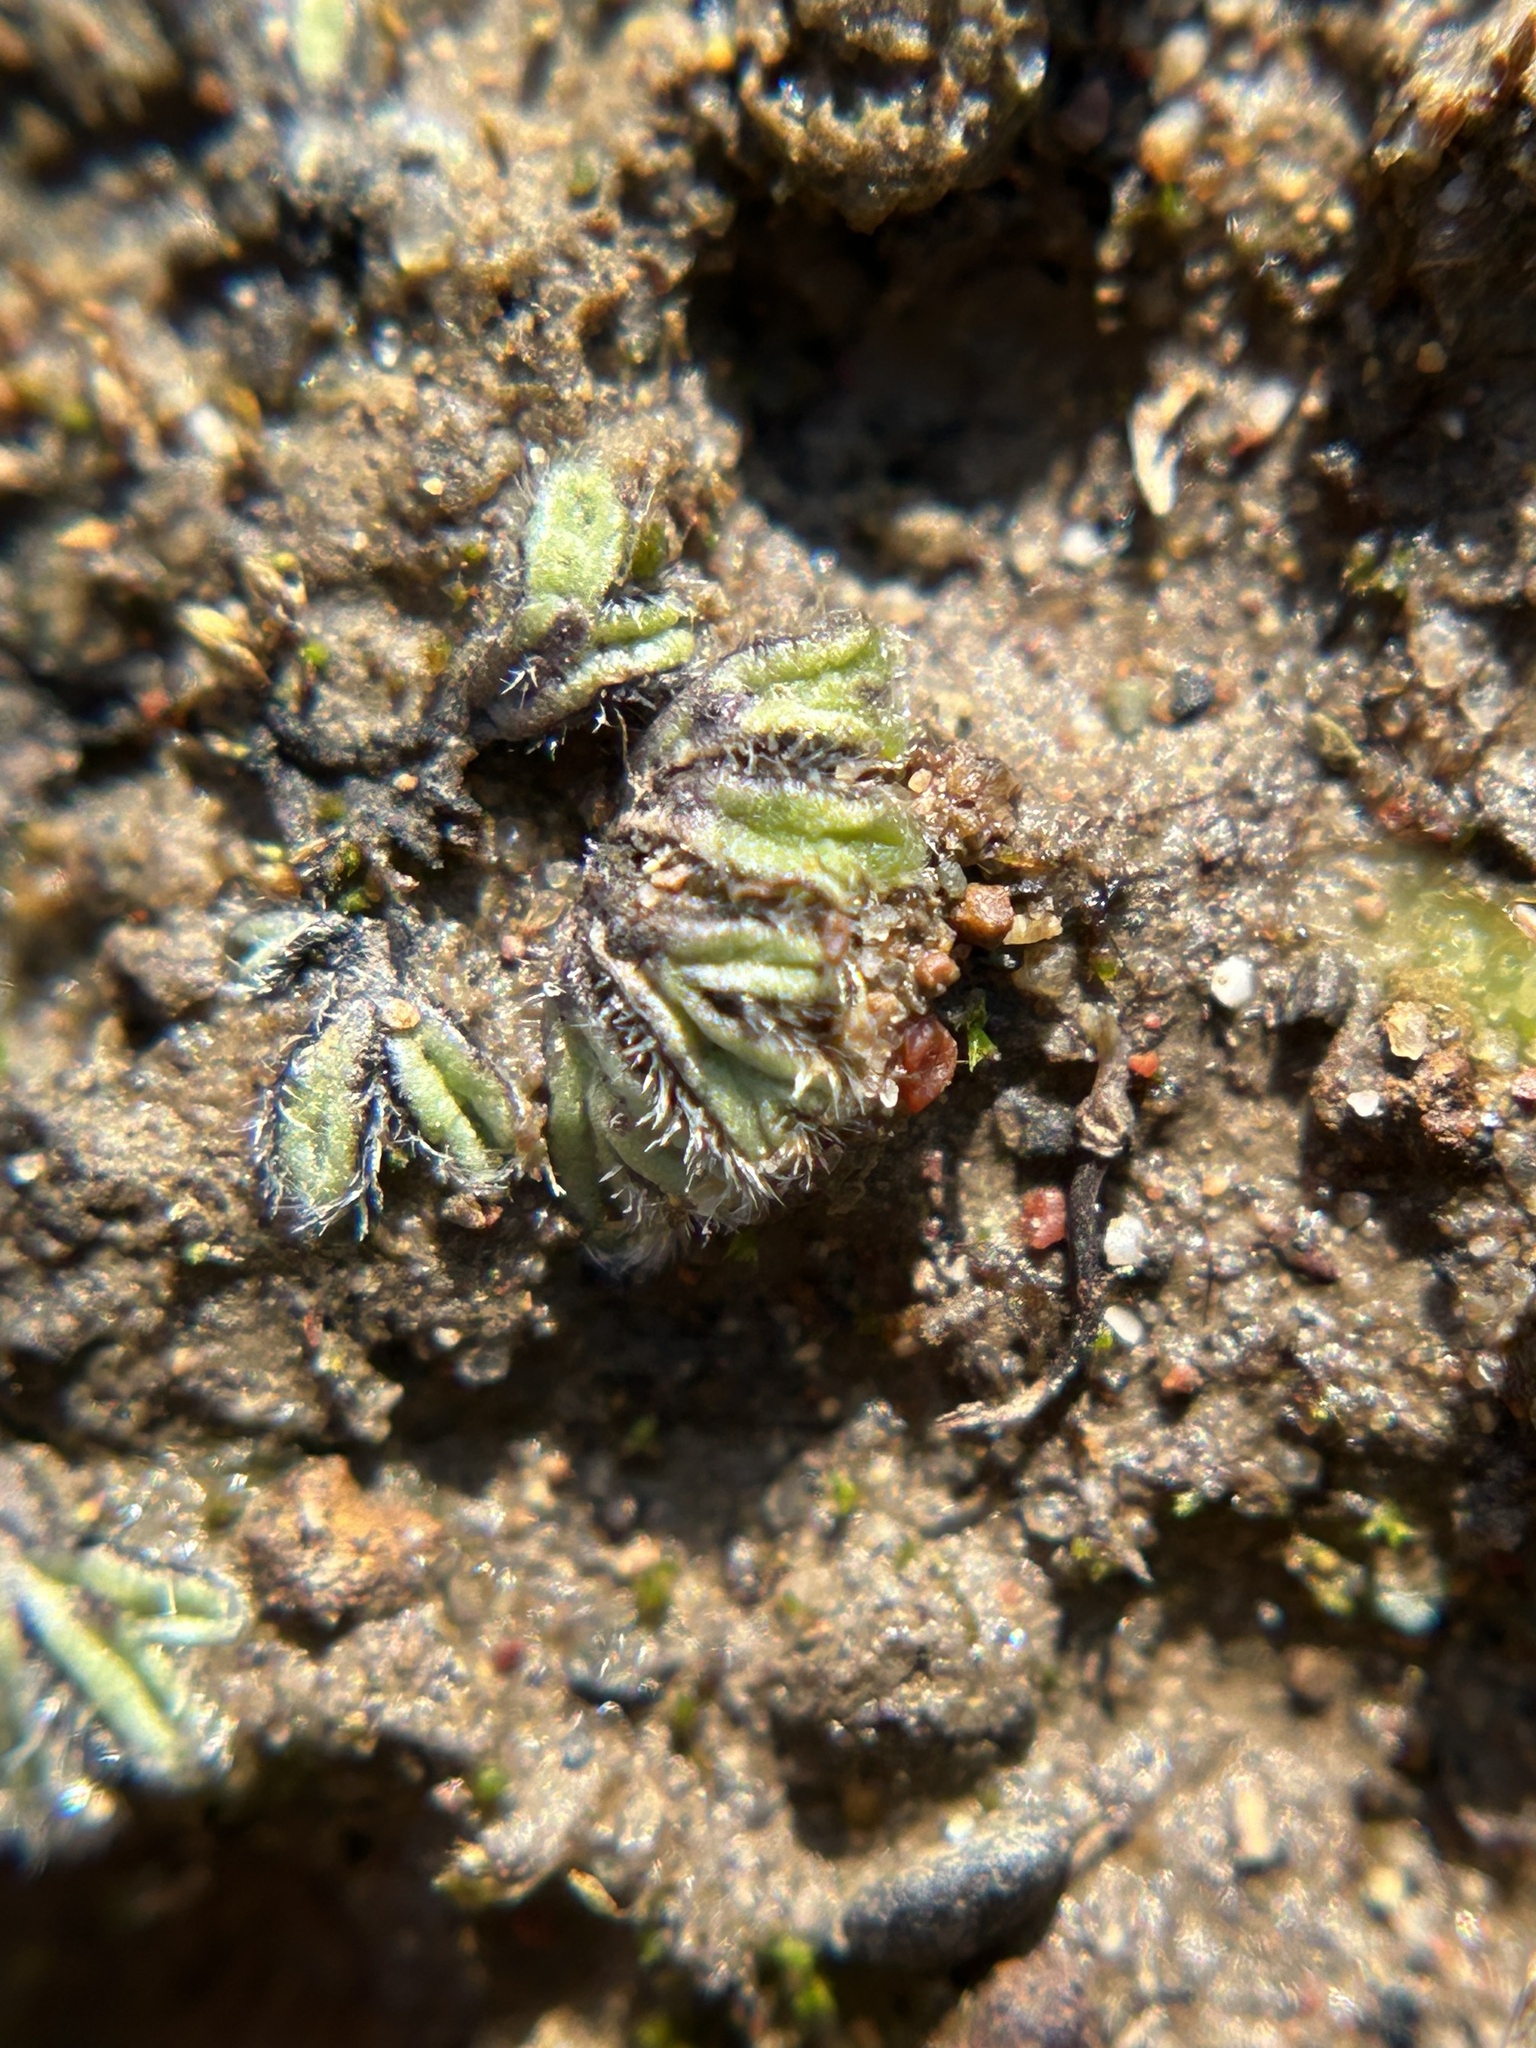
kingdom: Plantae
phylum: Marchantiophyta
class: Marchantiopsida
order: Marchantiales
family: Ricciaceae
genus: Riccia
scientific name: Riccia trichocarpa
